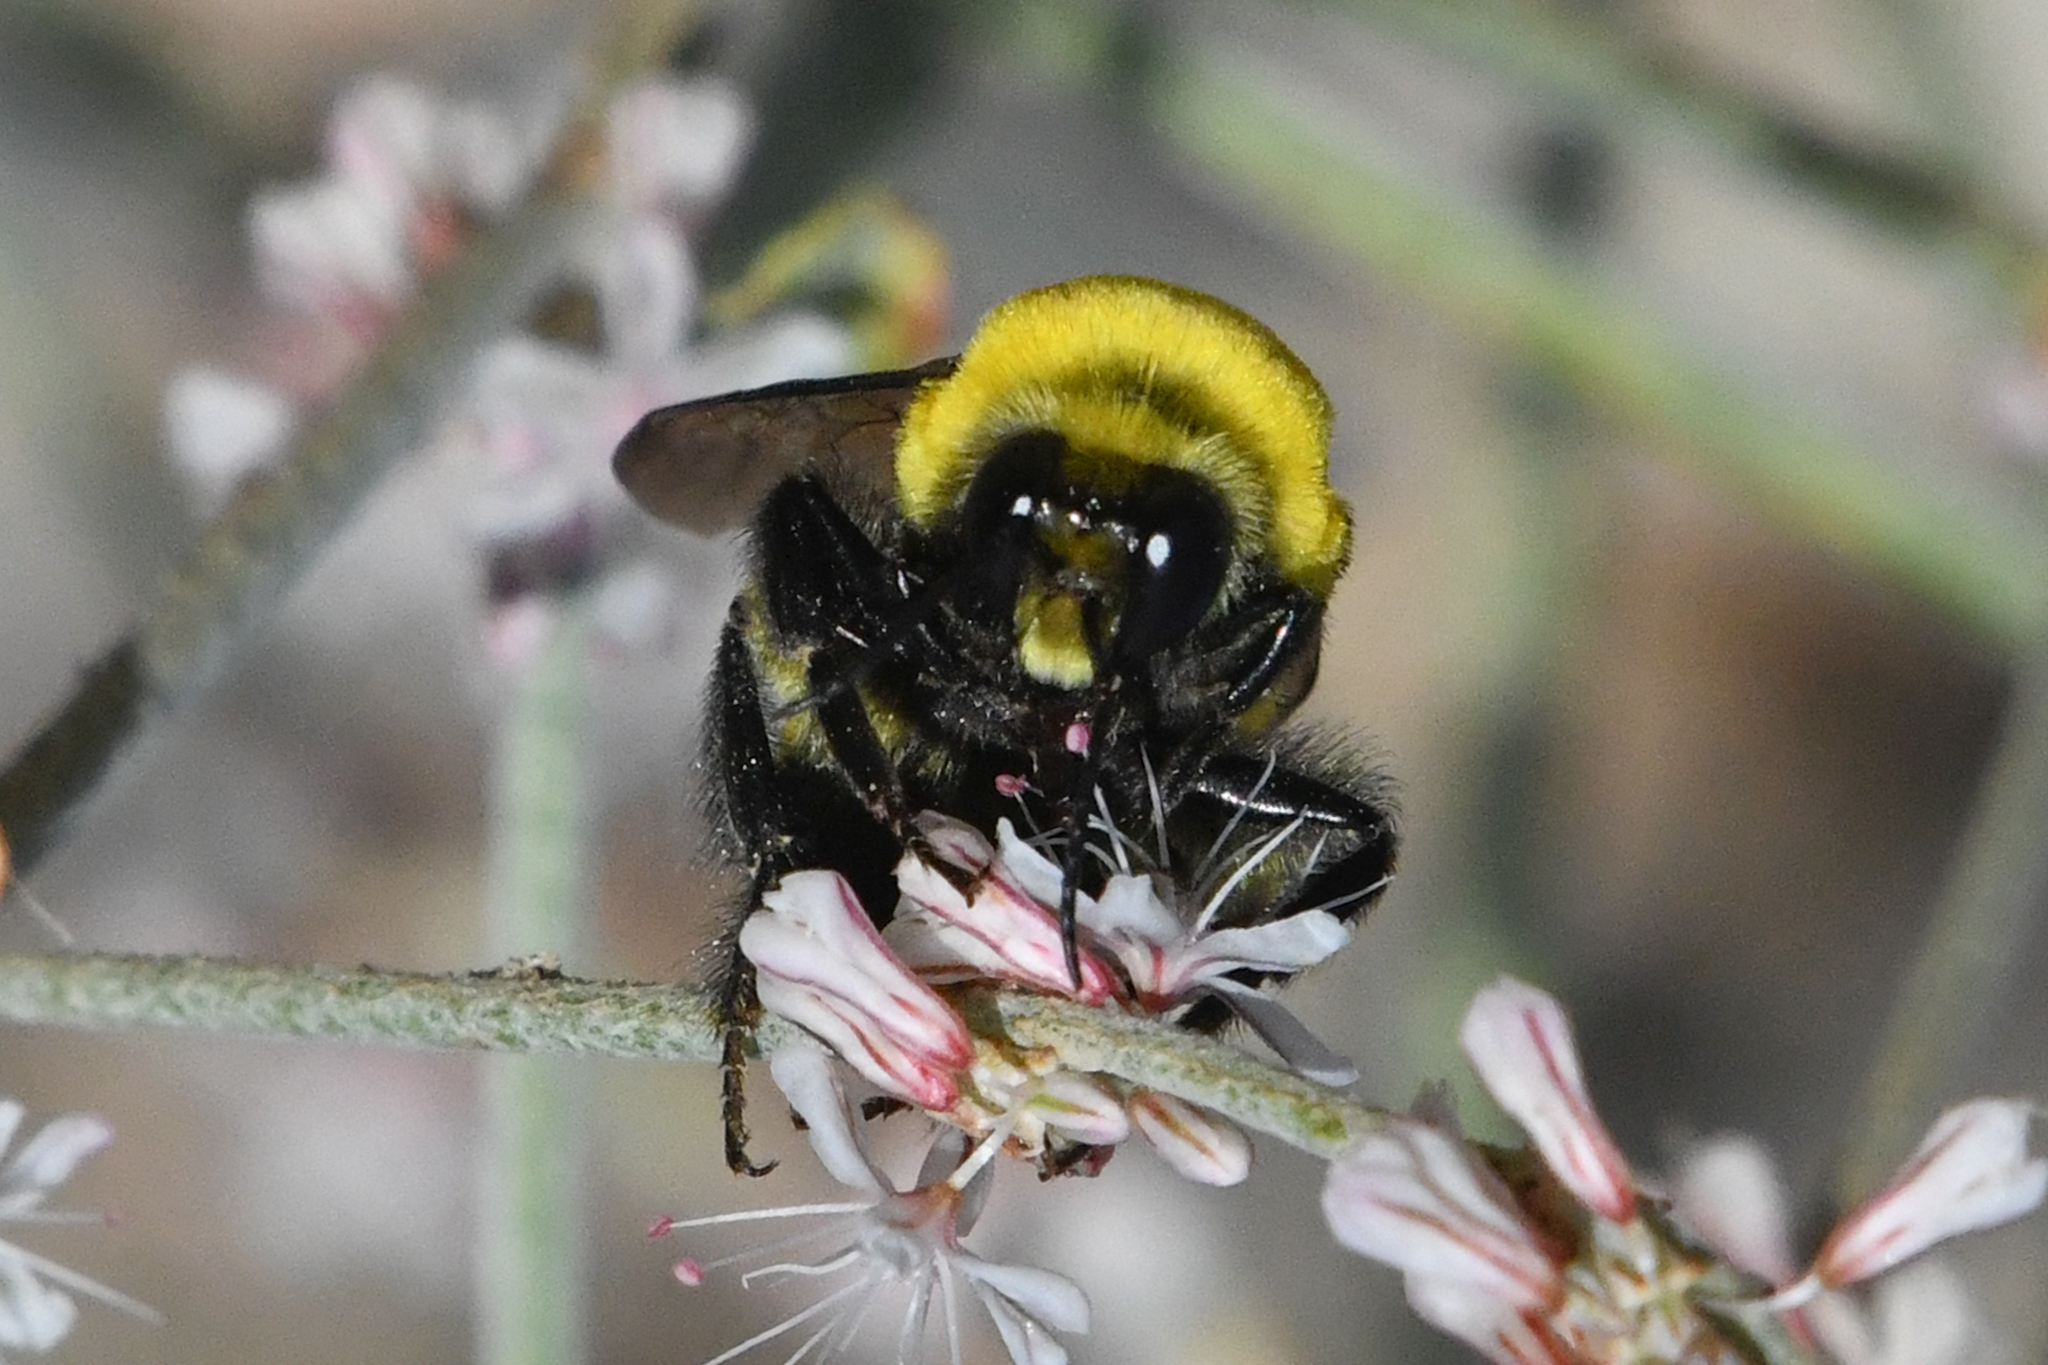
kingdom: Animalia
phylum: Arthropoda
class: Insecta
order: Hymenoptera
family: Apidae
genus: Bombus
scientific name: Bombus morrisoni
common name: Morrison bumble bee
